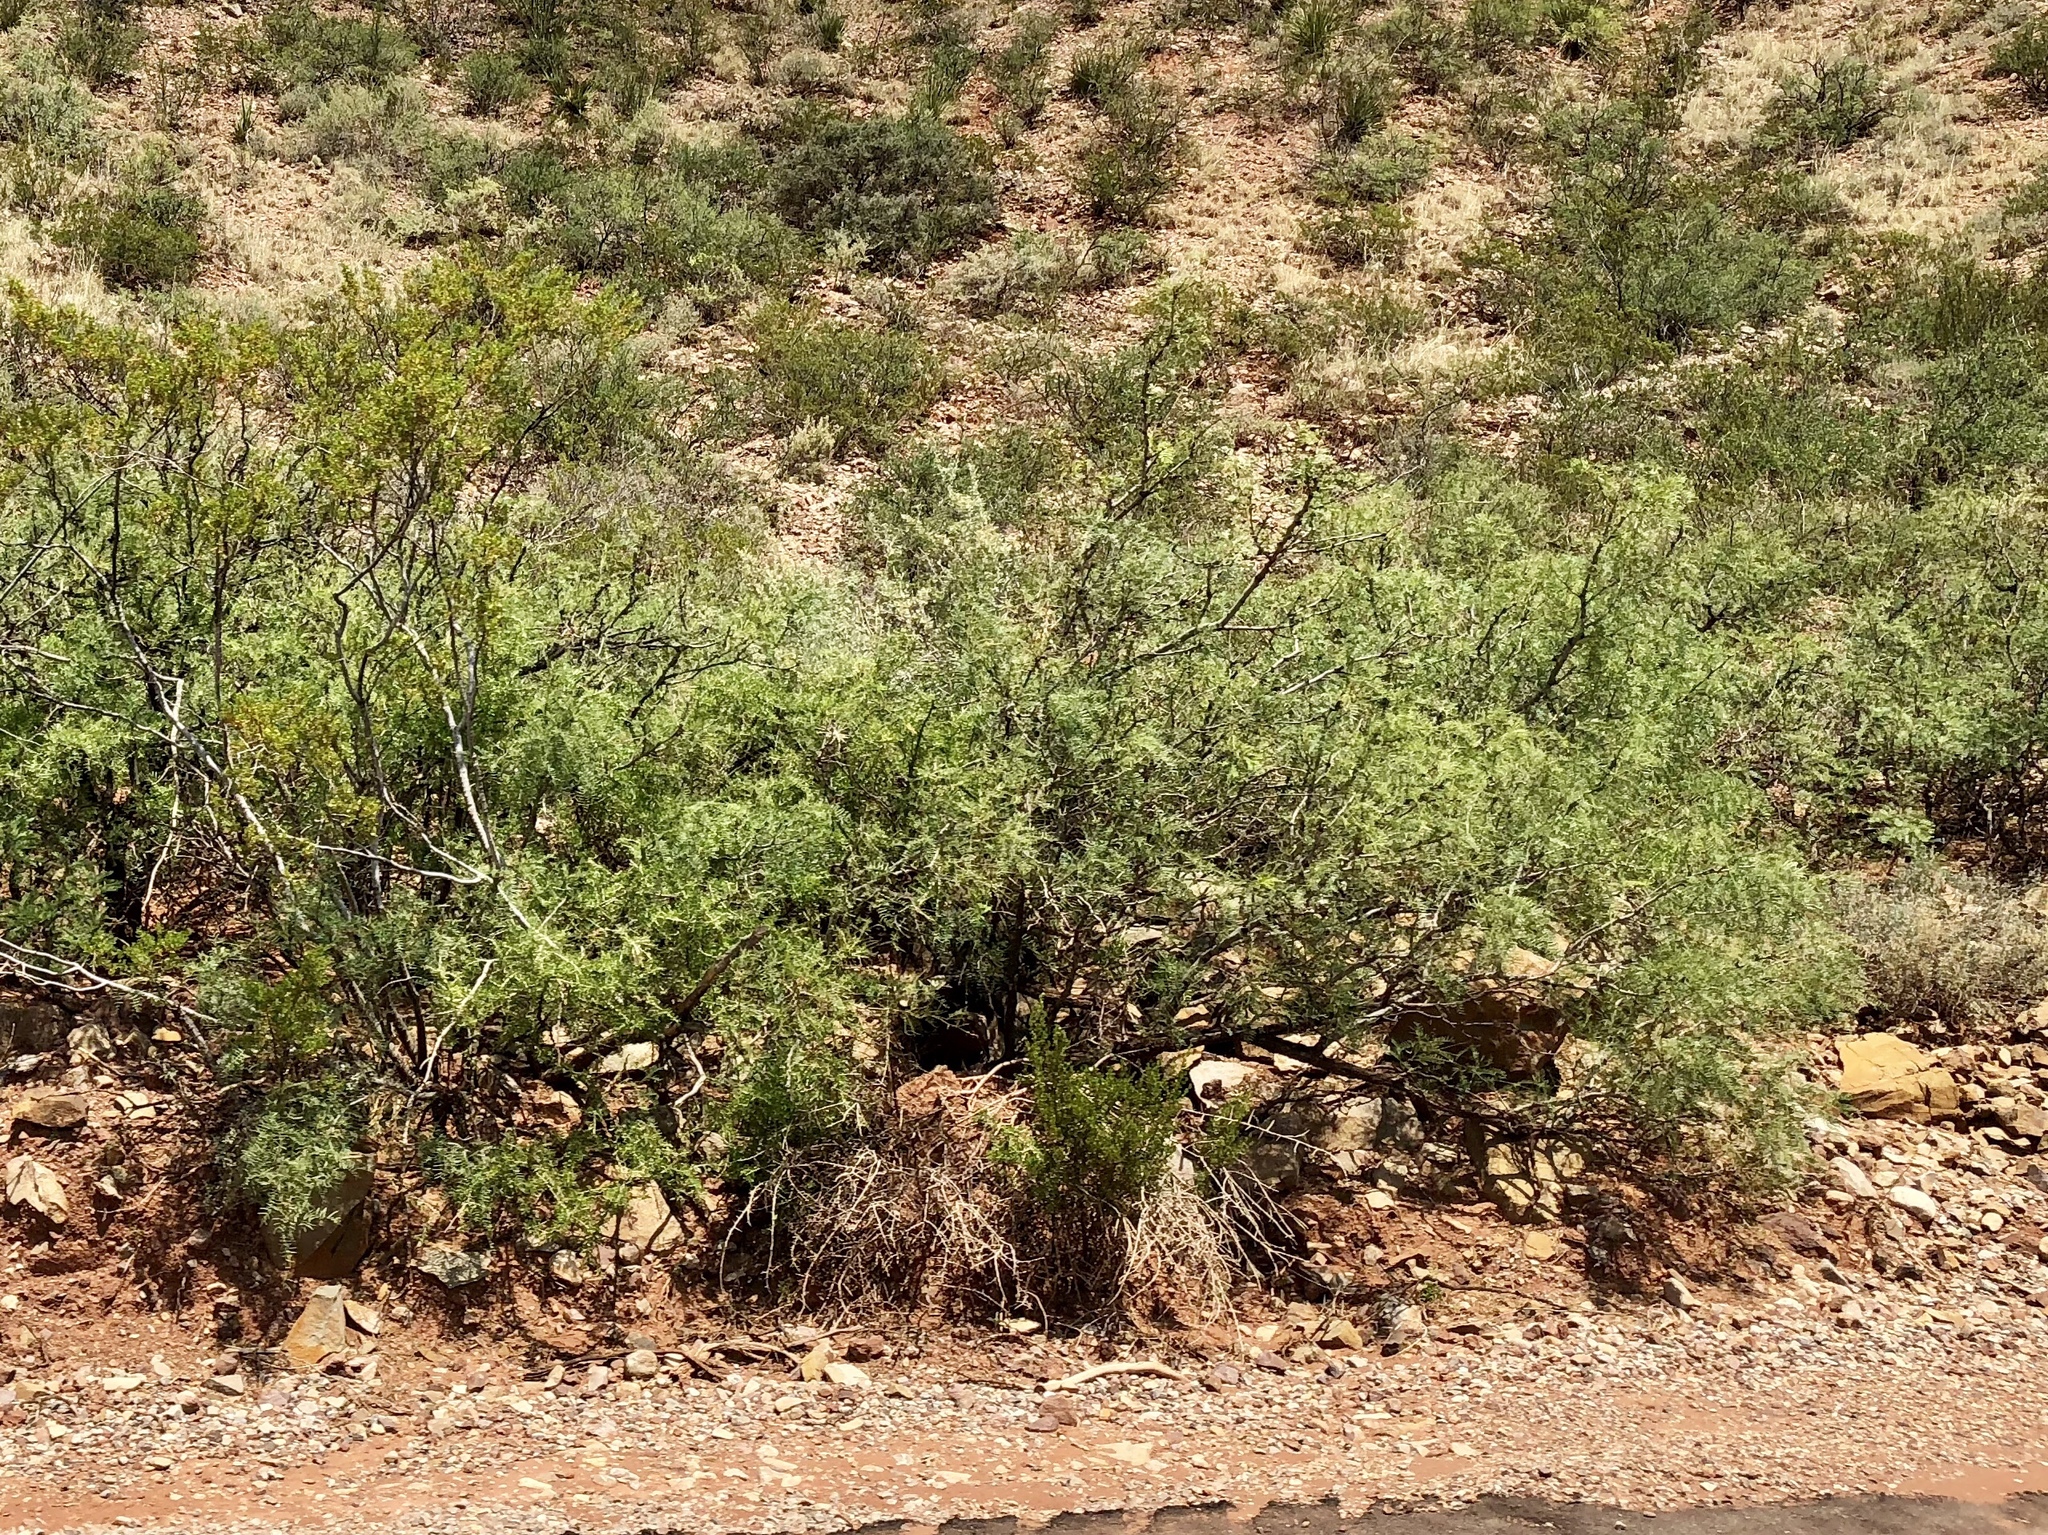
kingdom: Plantae
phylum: Tracheophyta
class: Magnoliopsida
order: Fabales
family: Fabaceae
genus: Prosopis
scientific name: Prosopis glandulosa
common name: Honey mesquite
